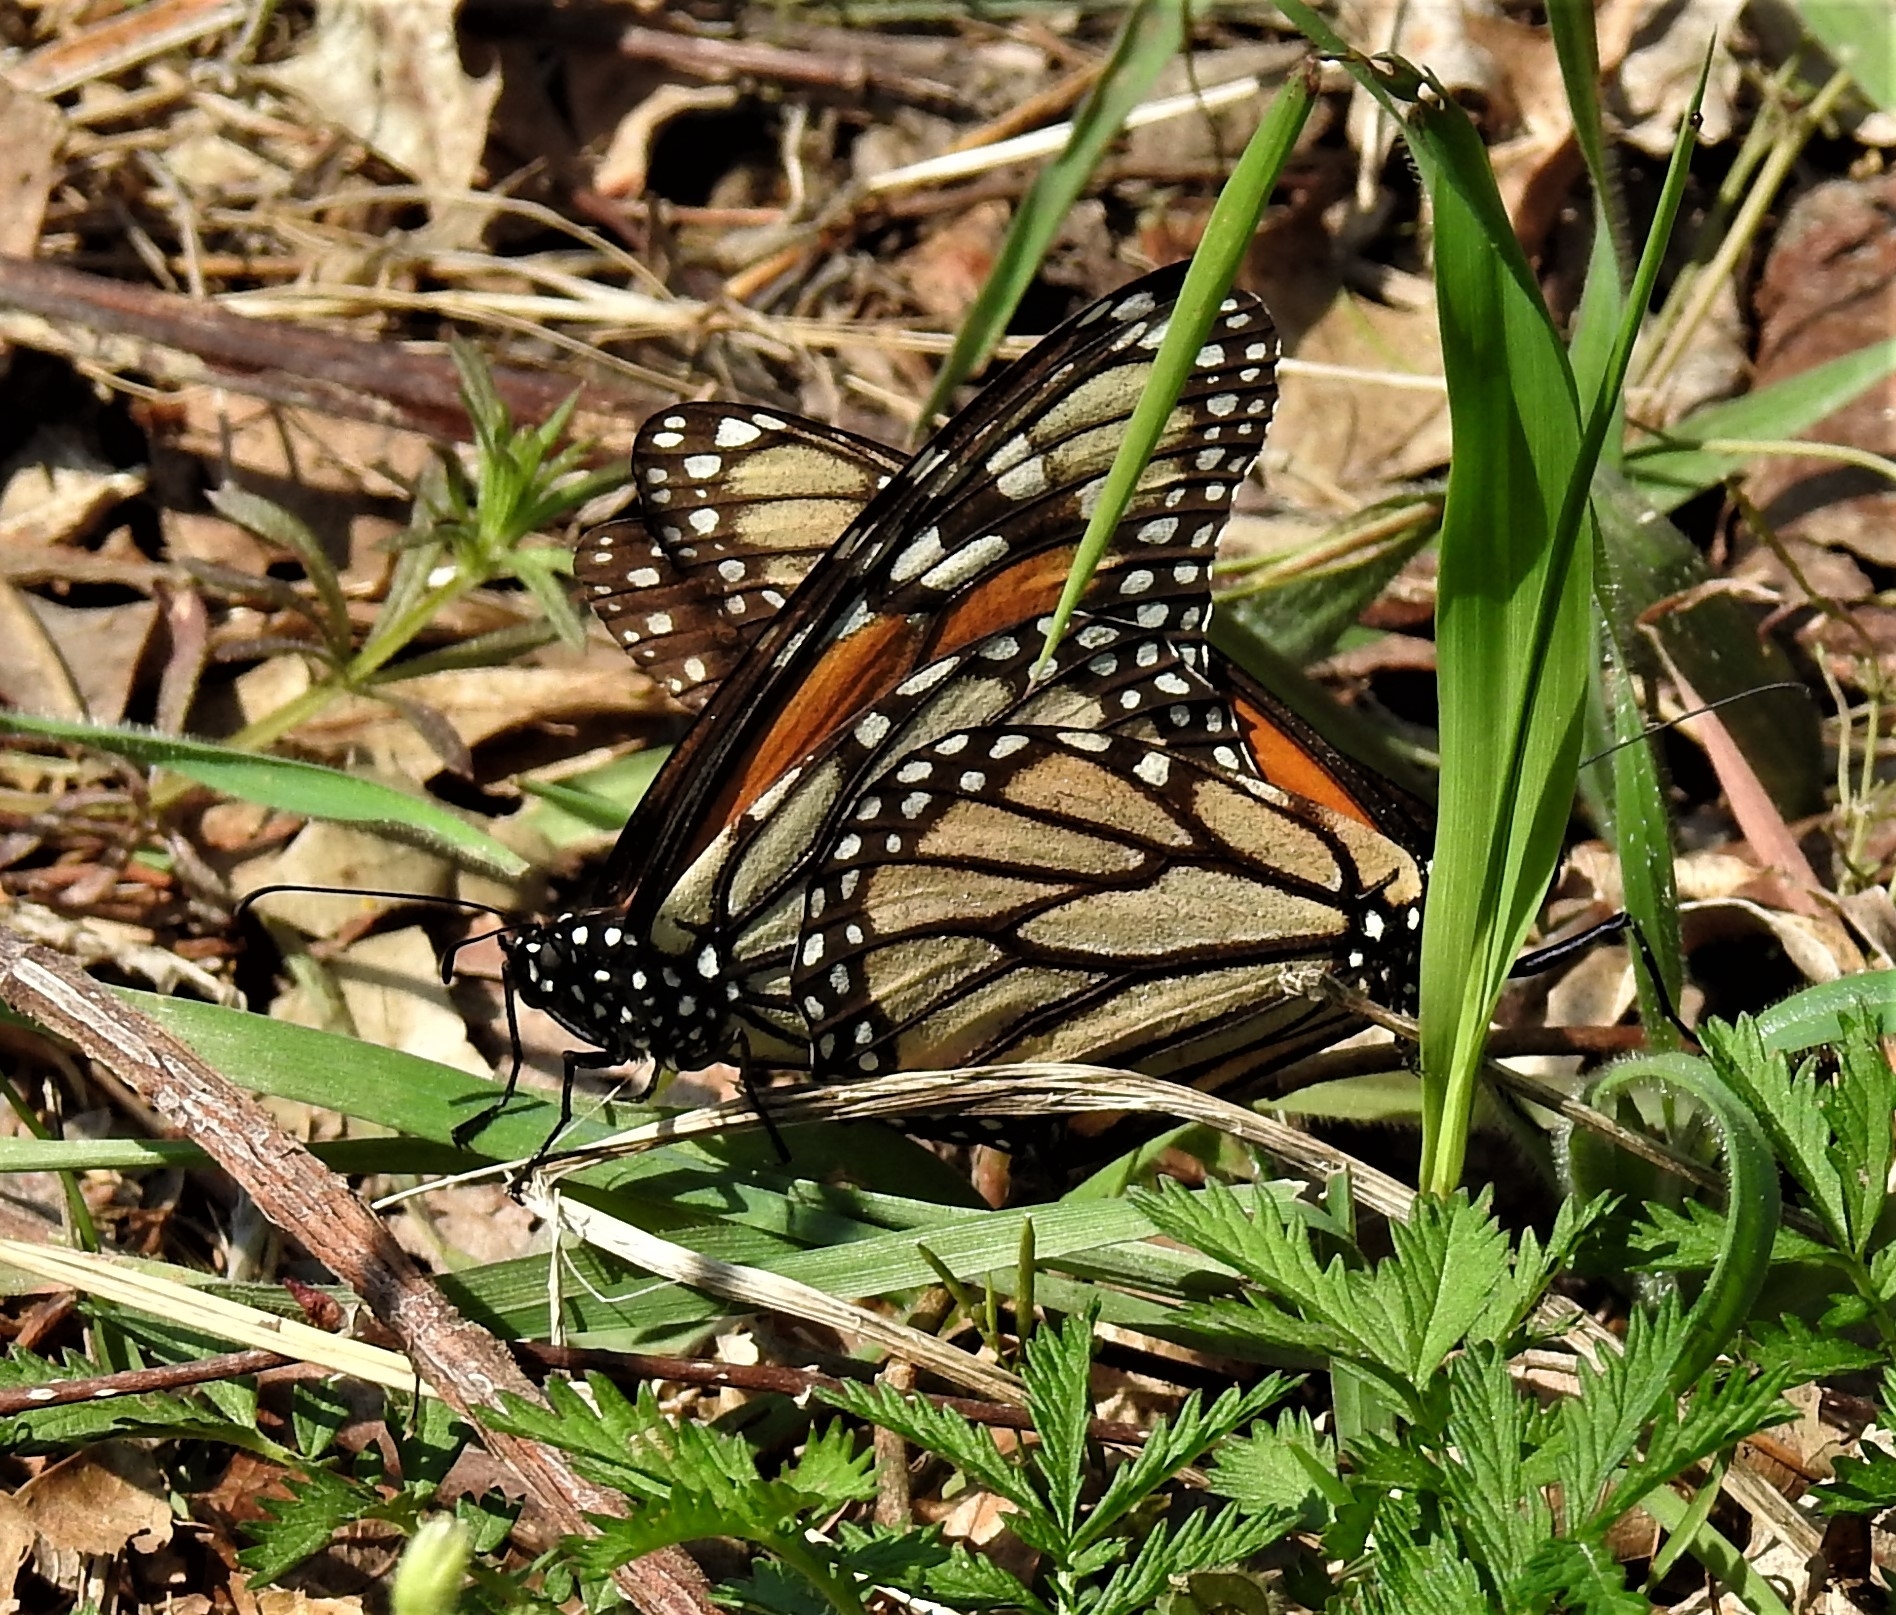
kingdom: Animalia
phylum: Arthropoda
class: Insecta
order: Lepidoptera
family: Nymphalidae
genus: Danaus
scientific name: Danaus plexippus
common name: Monarch
